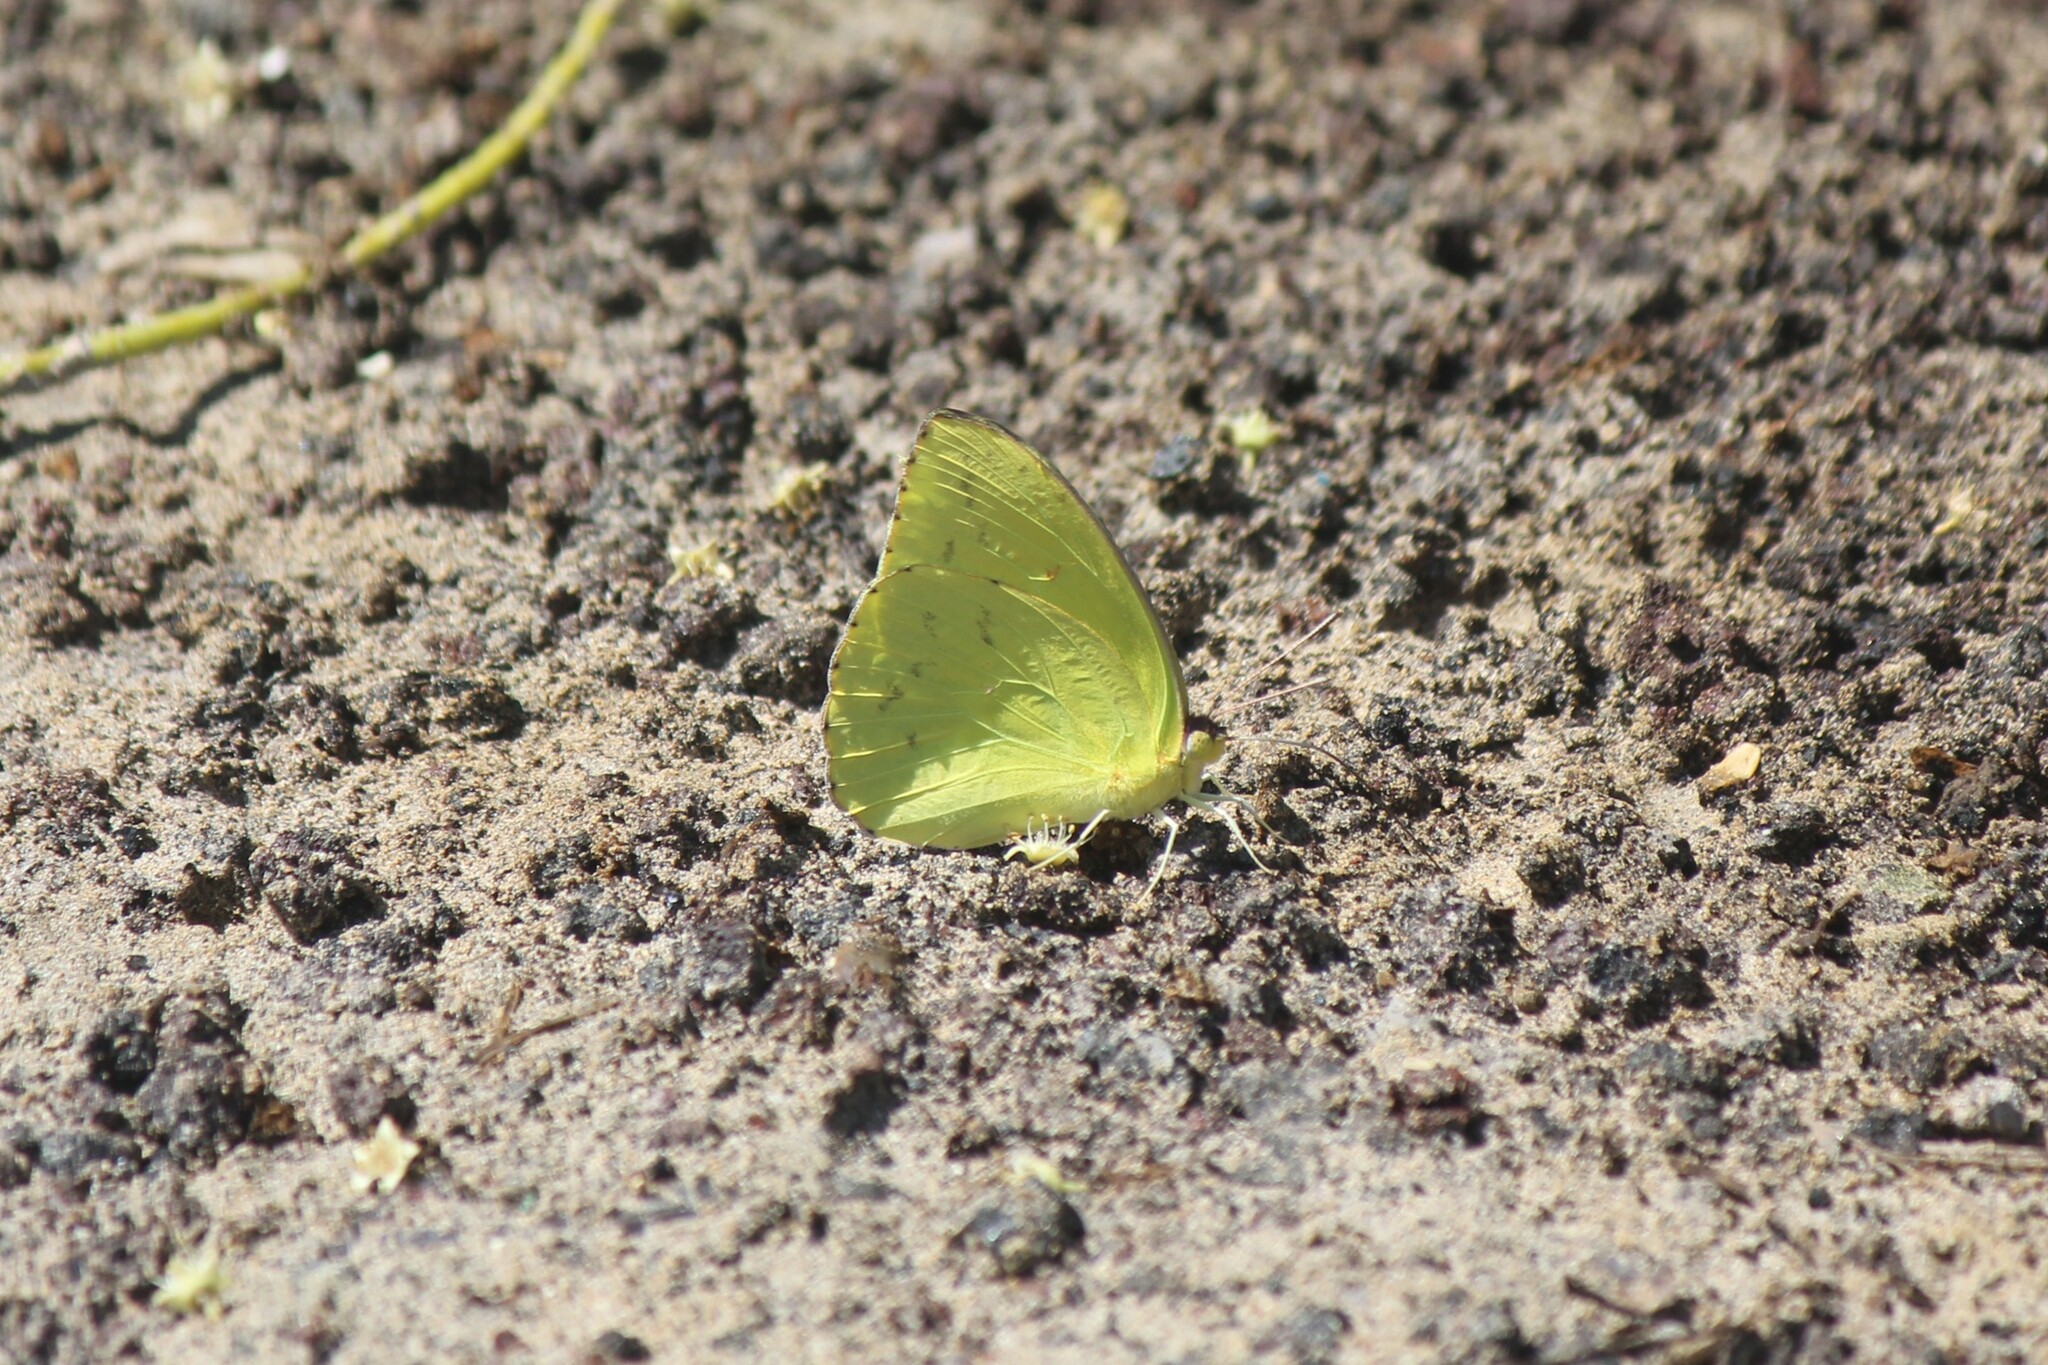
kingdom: Animalia
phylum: Arthropoda
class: Insecta
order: Lepidoptera
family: Pieridae
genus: Phoebis
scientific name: Phoebis sennae
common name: Cloudless sulphur
